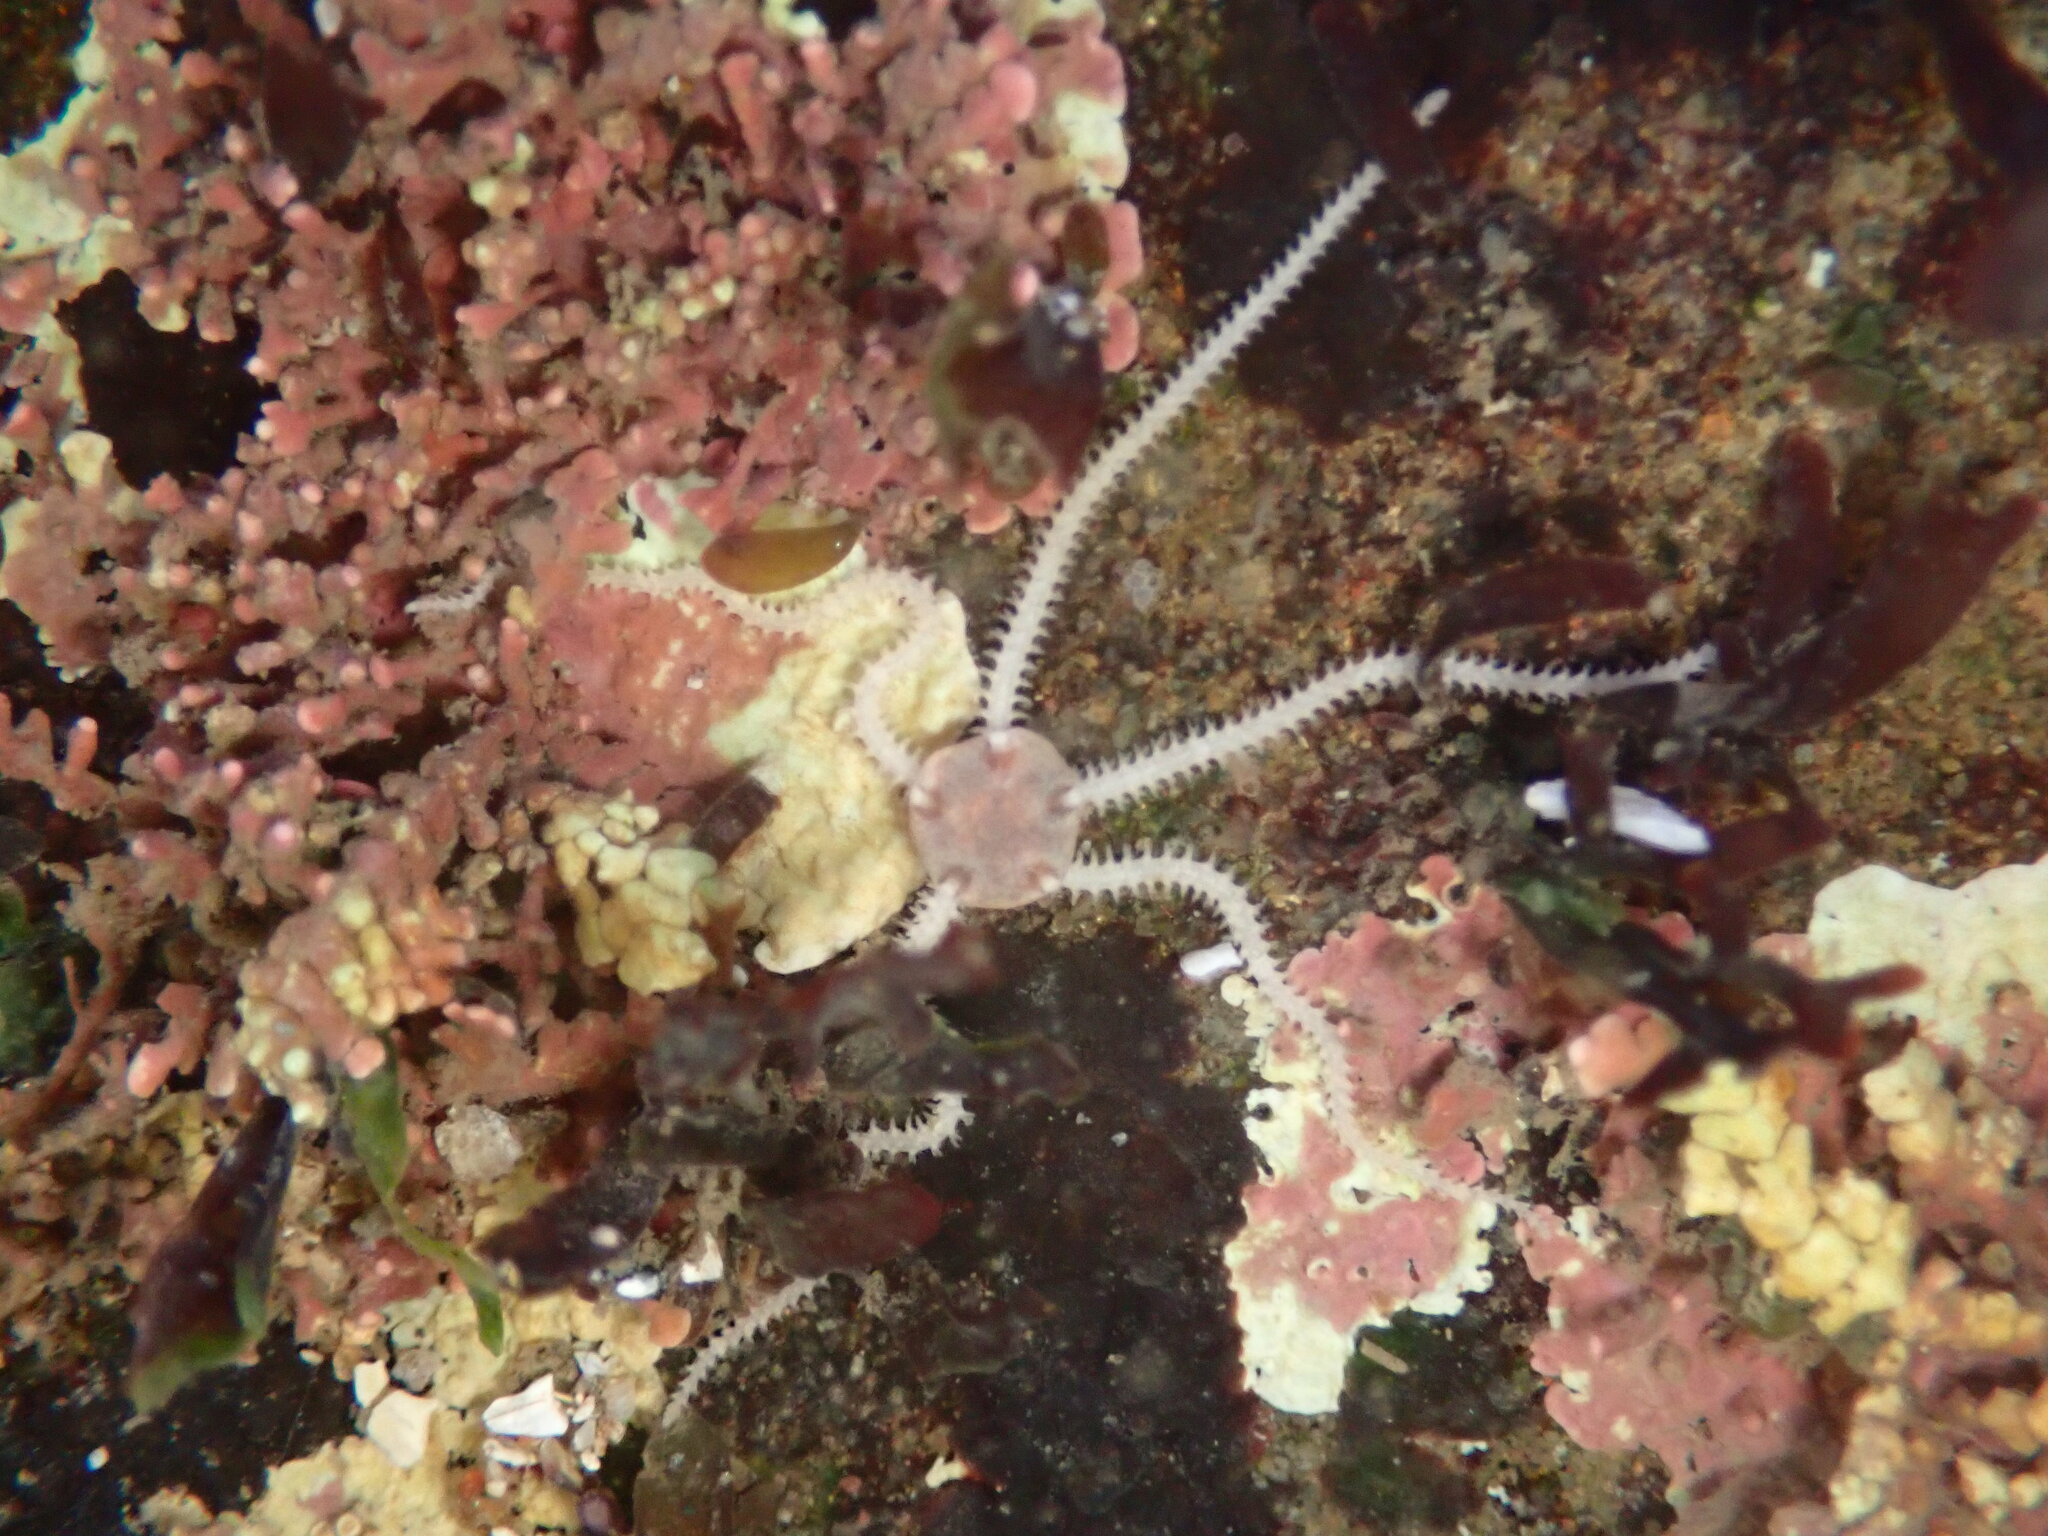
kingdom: Animalia
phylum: Echinodermata
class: Ophiuroidea
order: Amphilepidida
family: Amphiuridae
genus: Amphipholis
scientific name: Amphipholis squamata
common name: Brooding snake star
